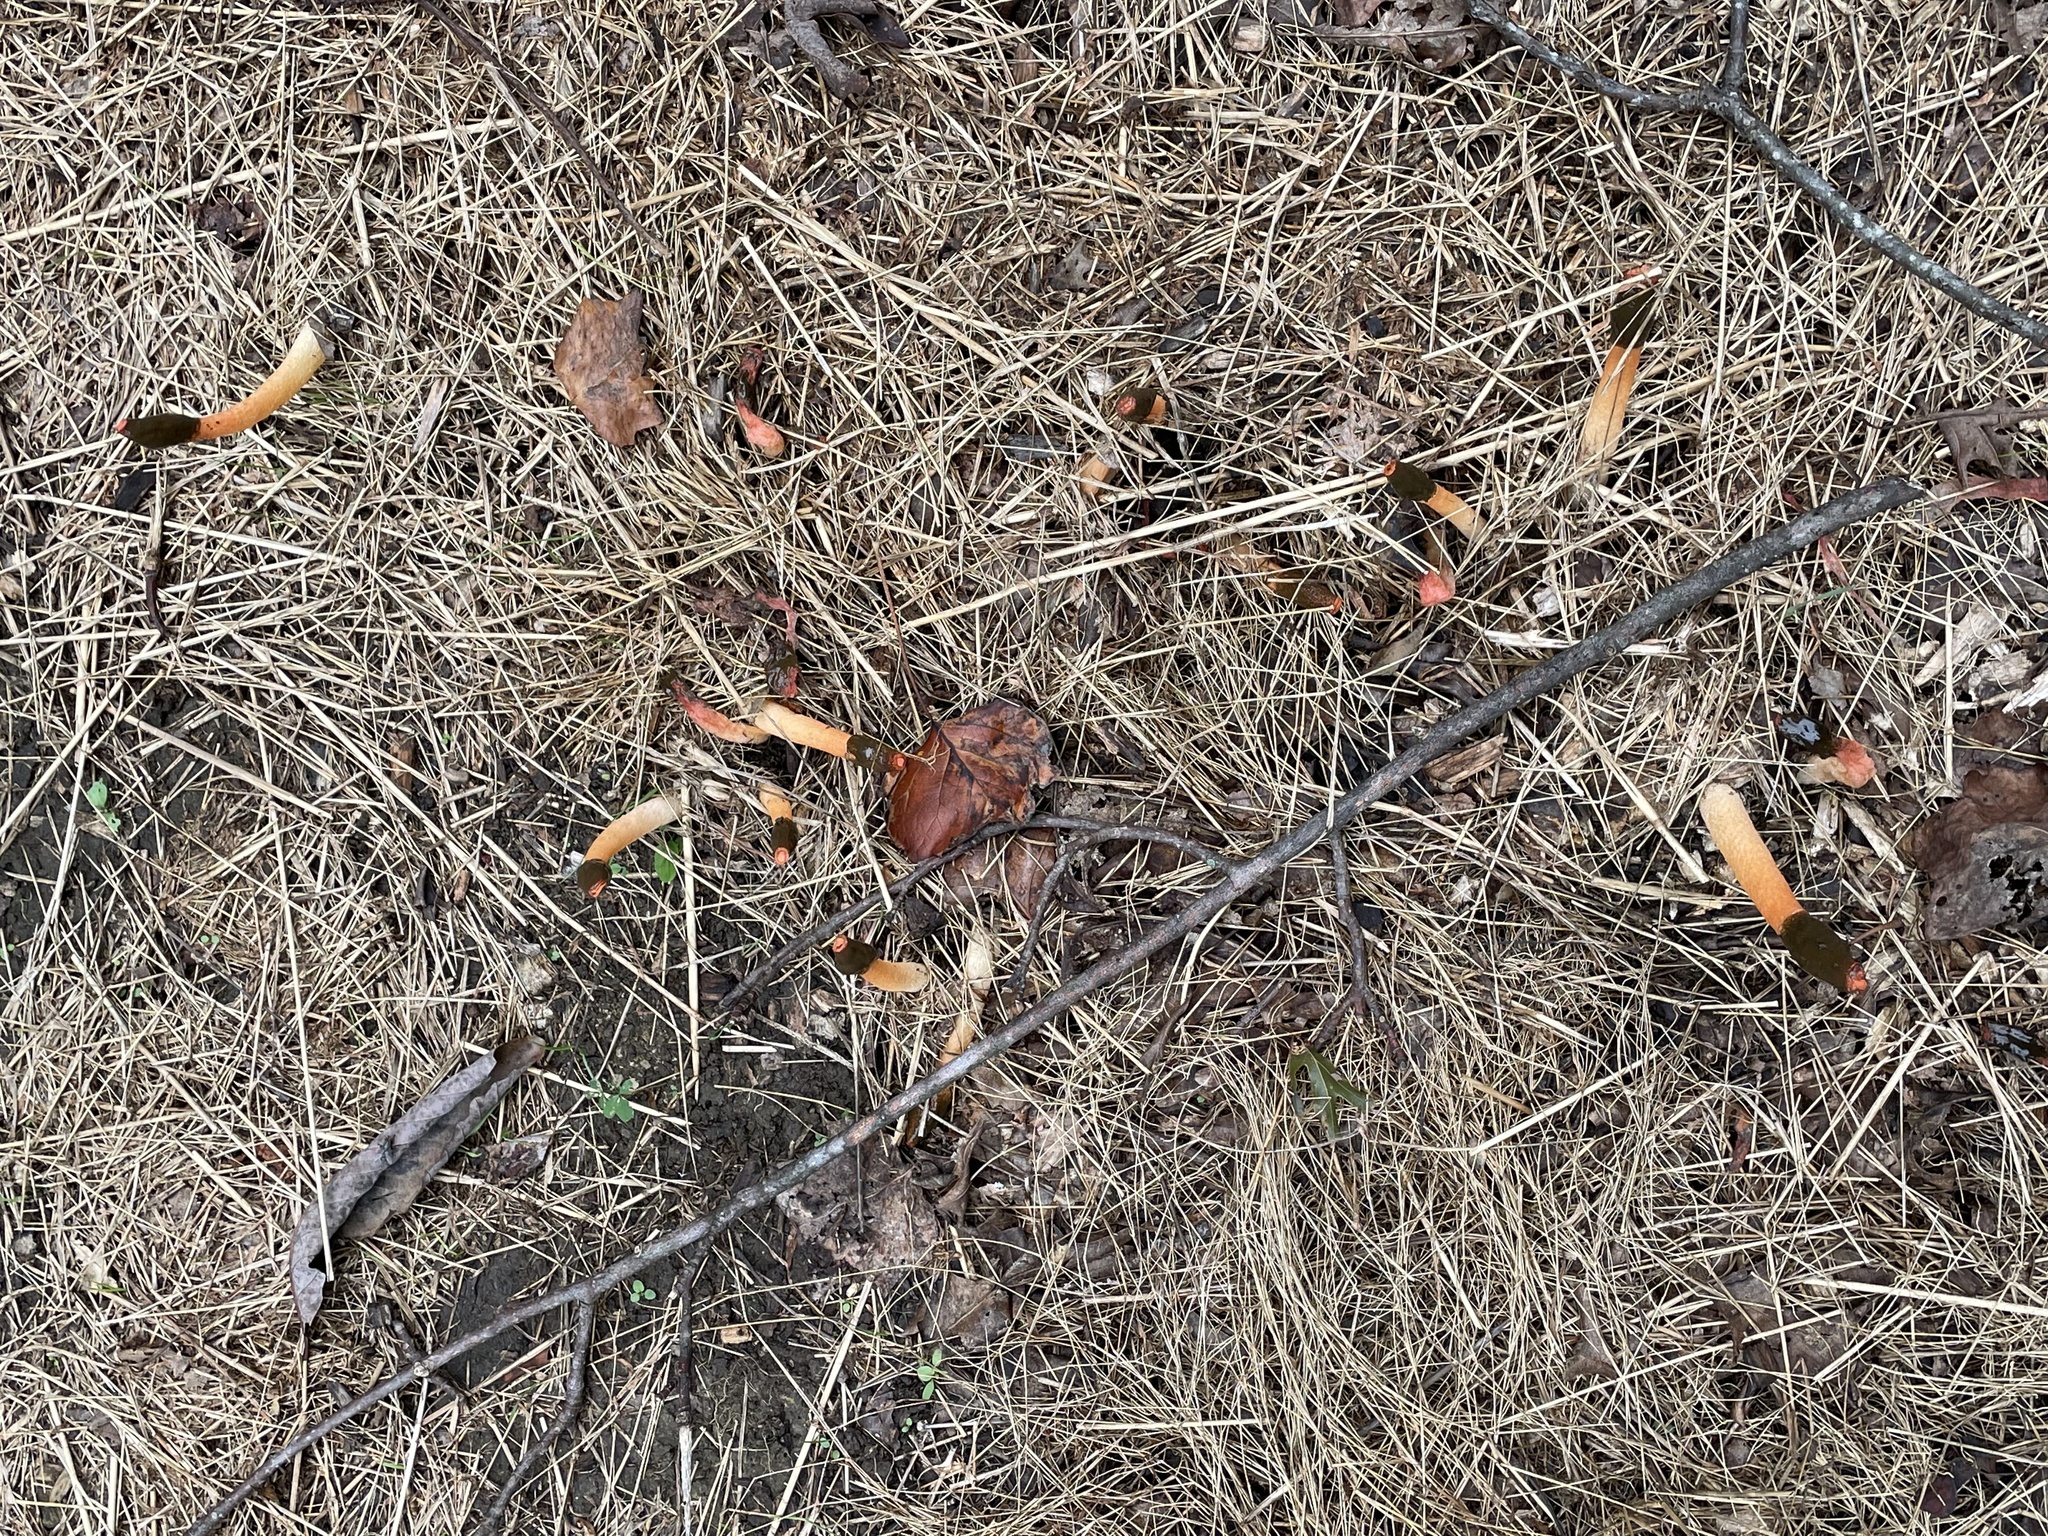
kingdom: Fungi
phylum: Basidiomycota
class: Agaricomycetes
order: Phallales
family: Phallaceae
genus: Phallus
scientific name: Phallus rugulosus
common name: Wrinkly stinkhorn
